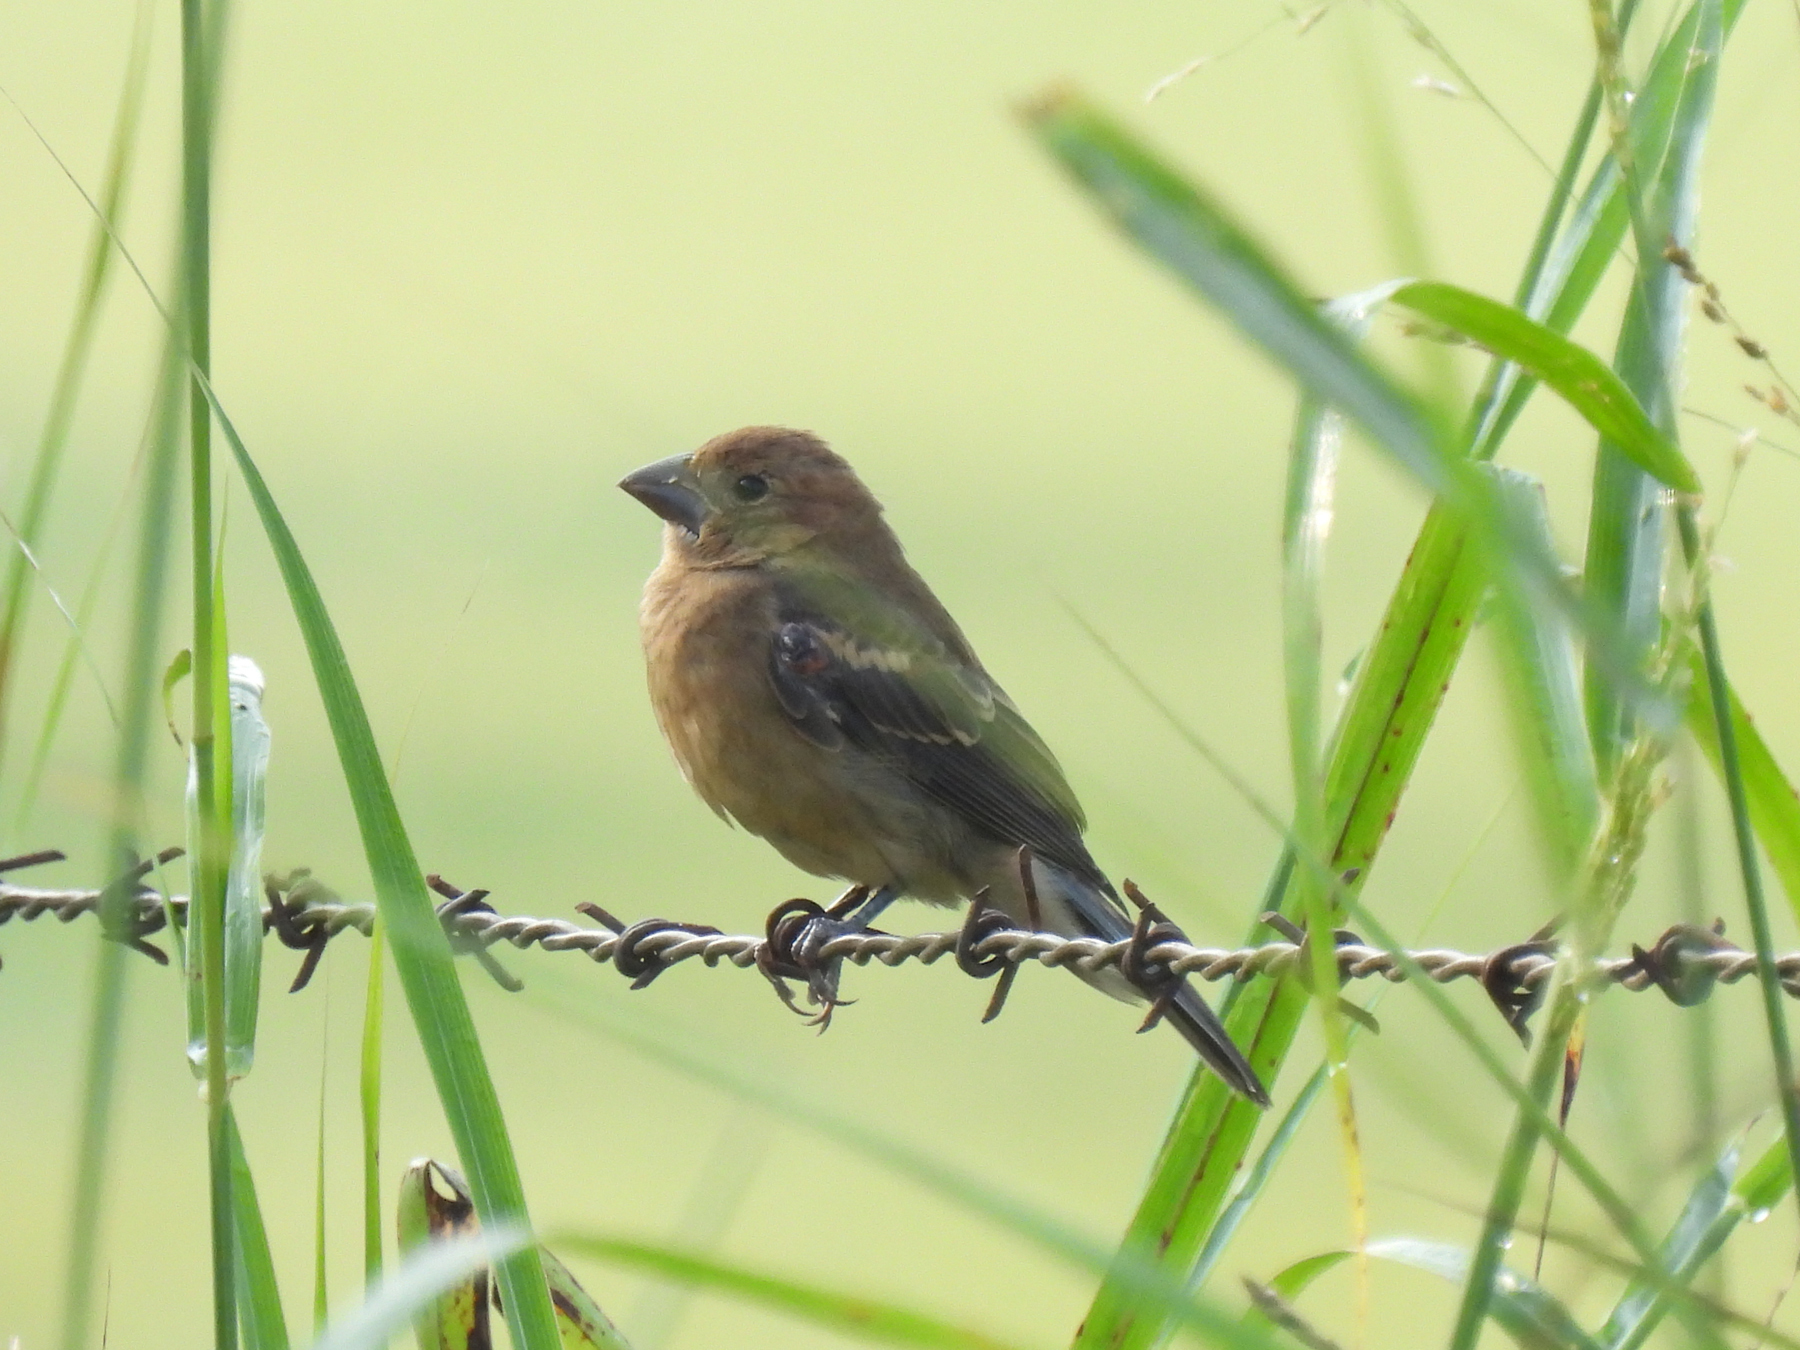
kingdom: Animalia
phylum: Chordata
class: Aves
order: Passeriformes
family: Cardinalidae
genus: Passerina
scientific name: Passerina caerulea
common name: Blue grosbeak
